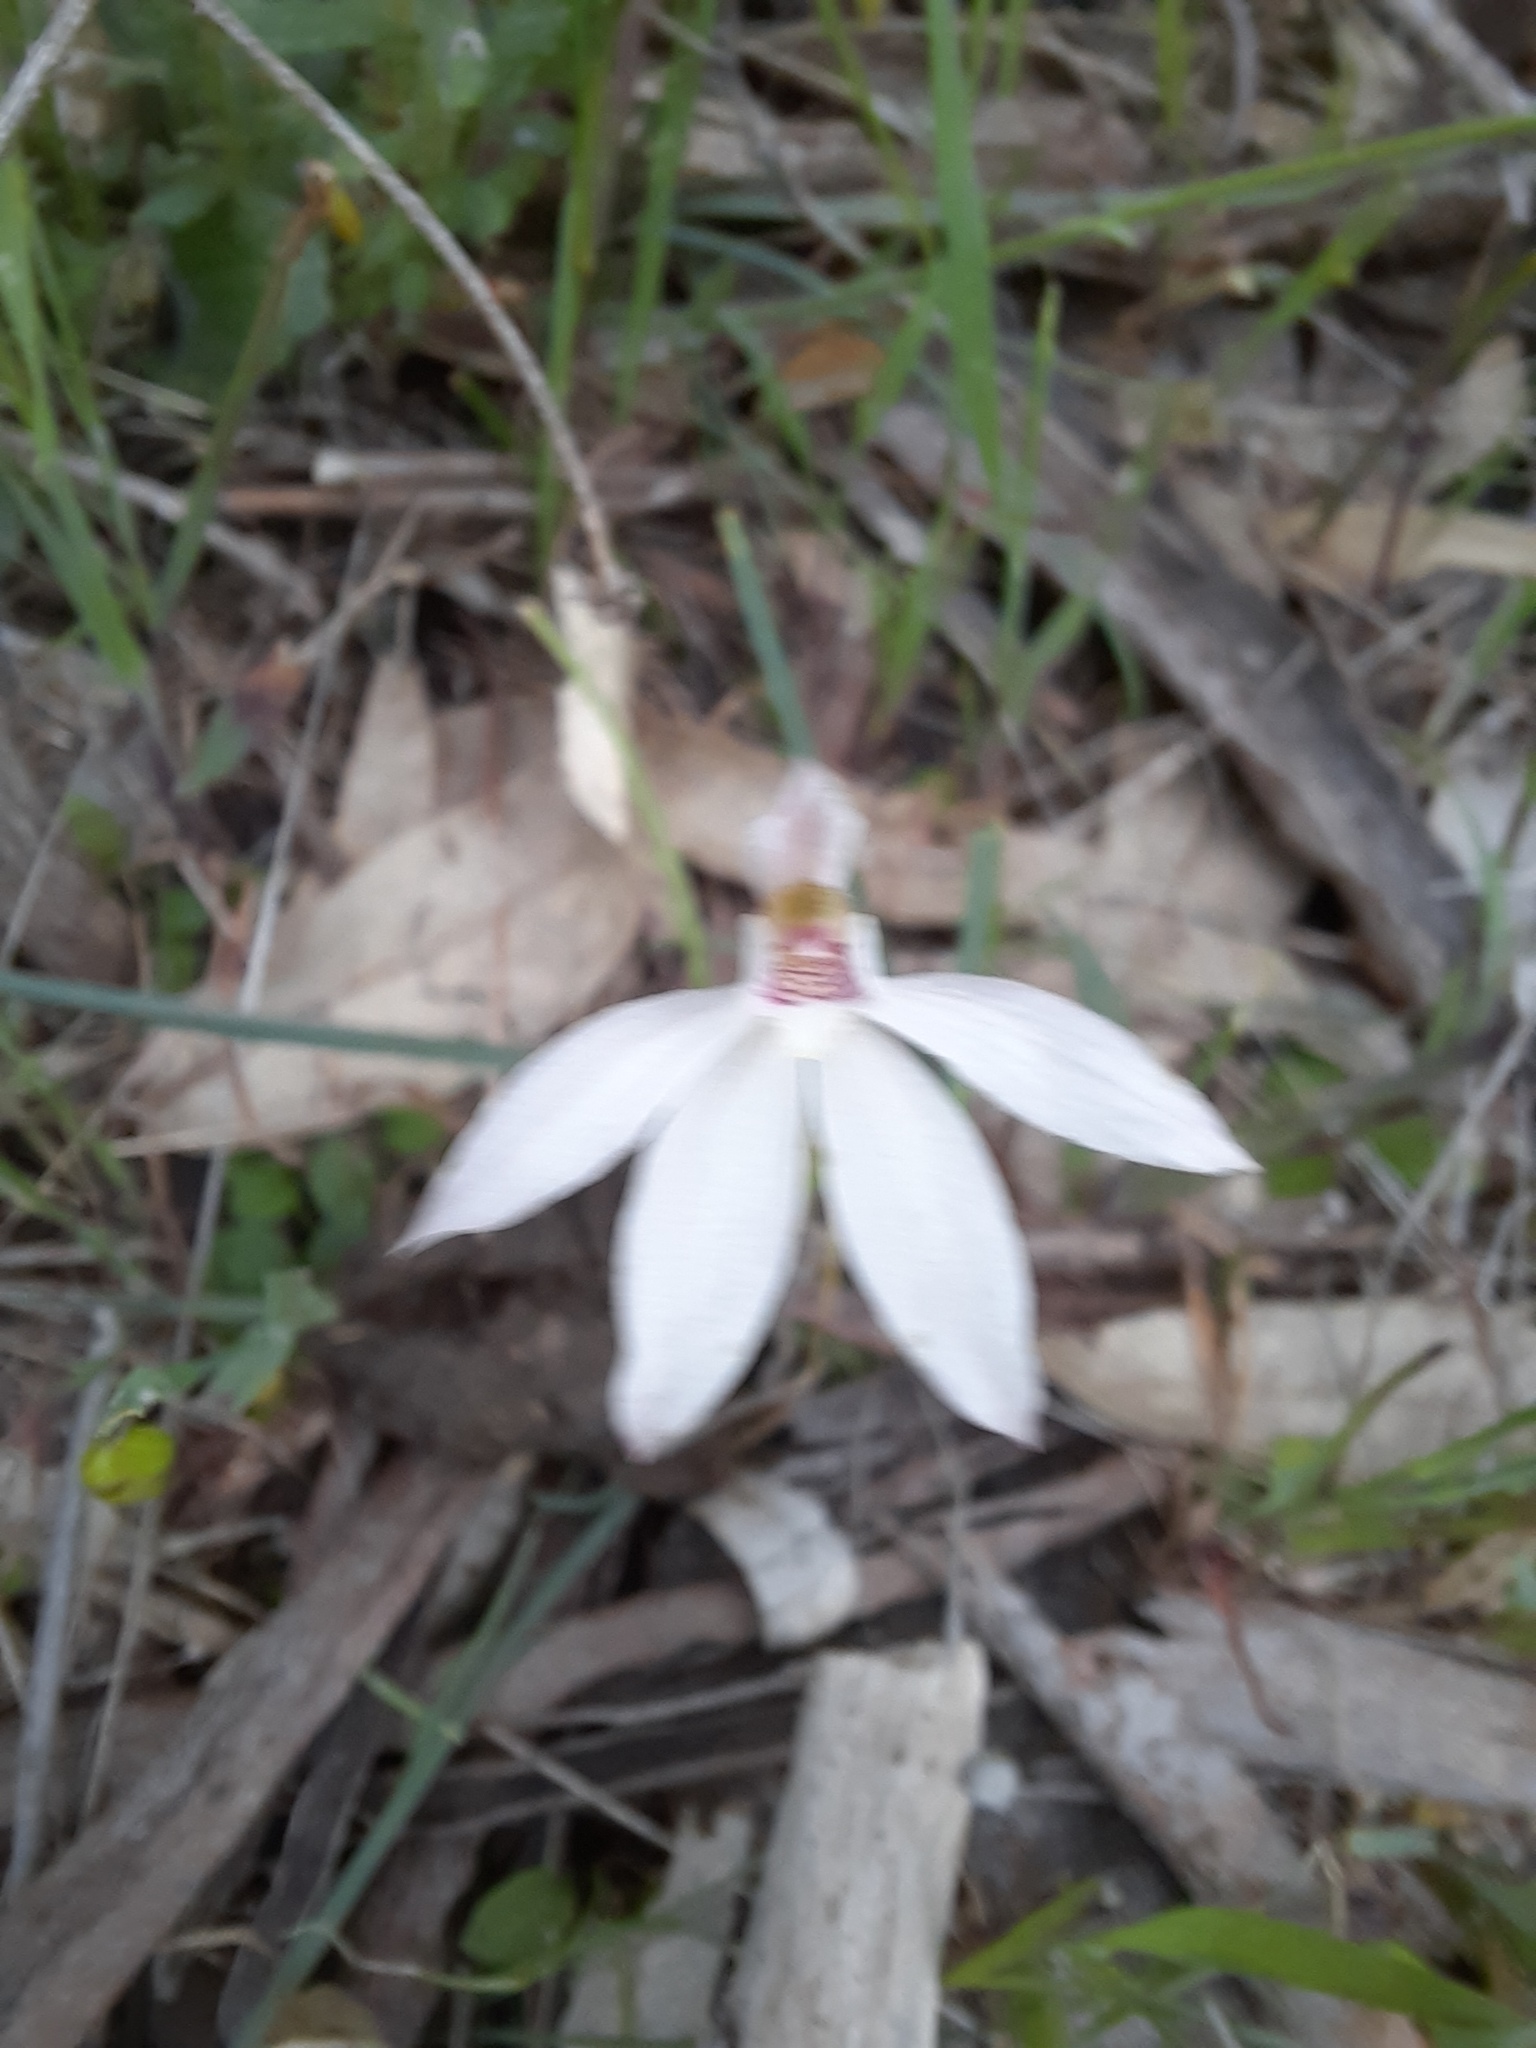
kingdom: Plantae
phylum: Tracheophyta
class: Liliopsida
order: Asparagales
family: Orchidaceae
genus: Caladenia
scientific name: Caladenia carnea
